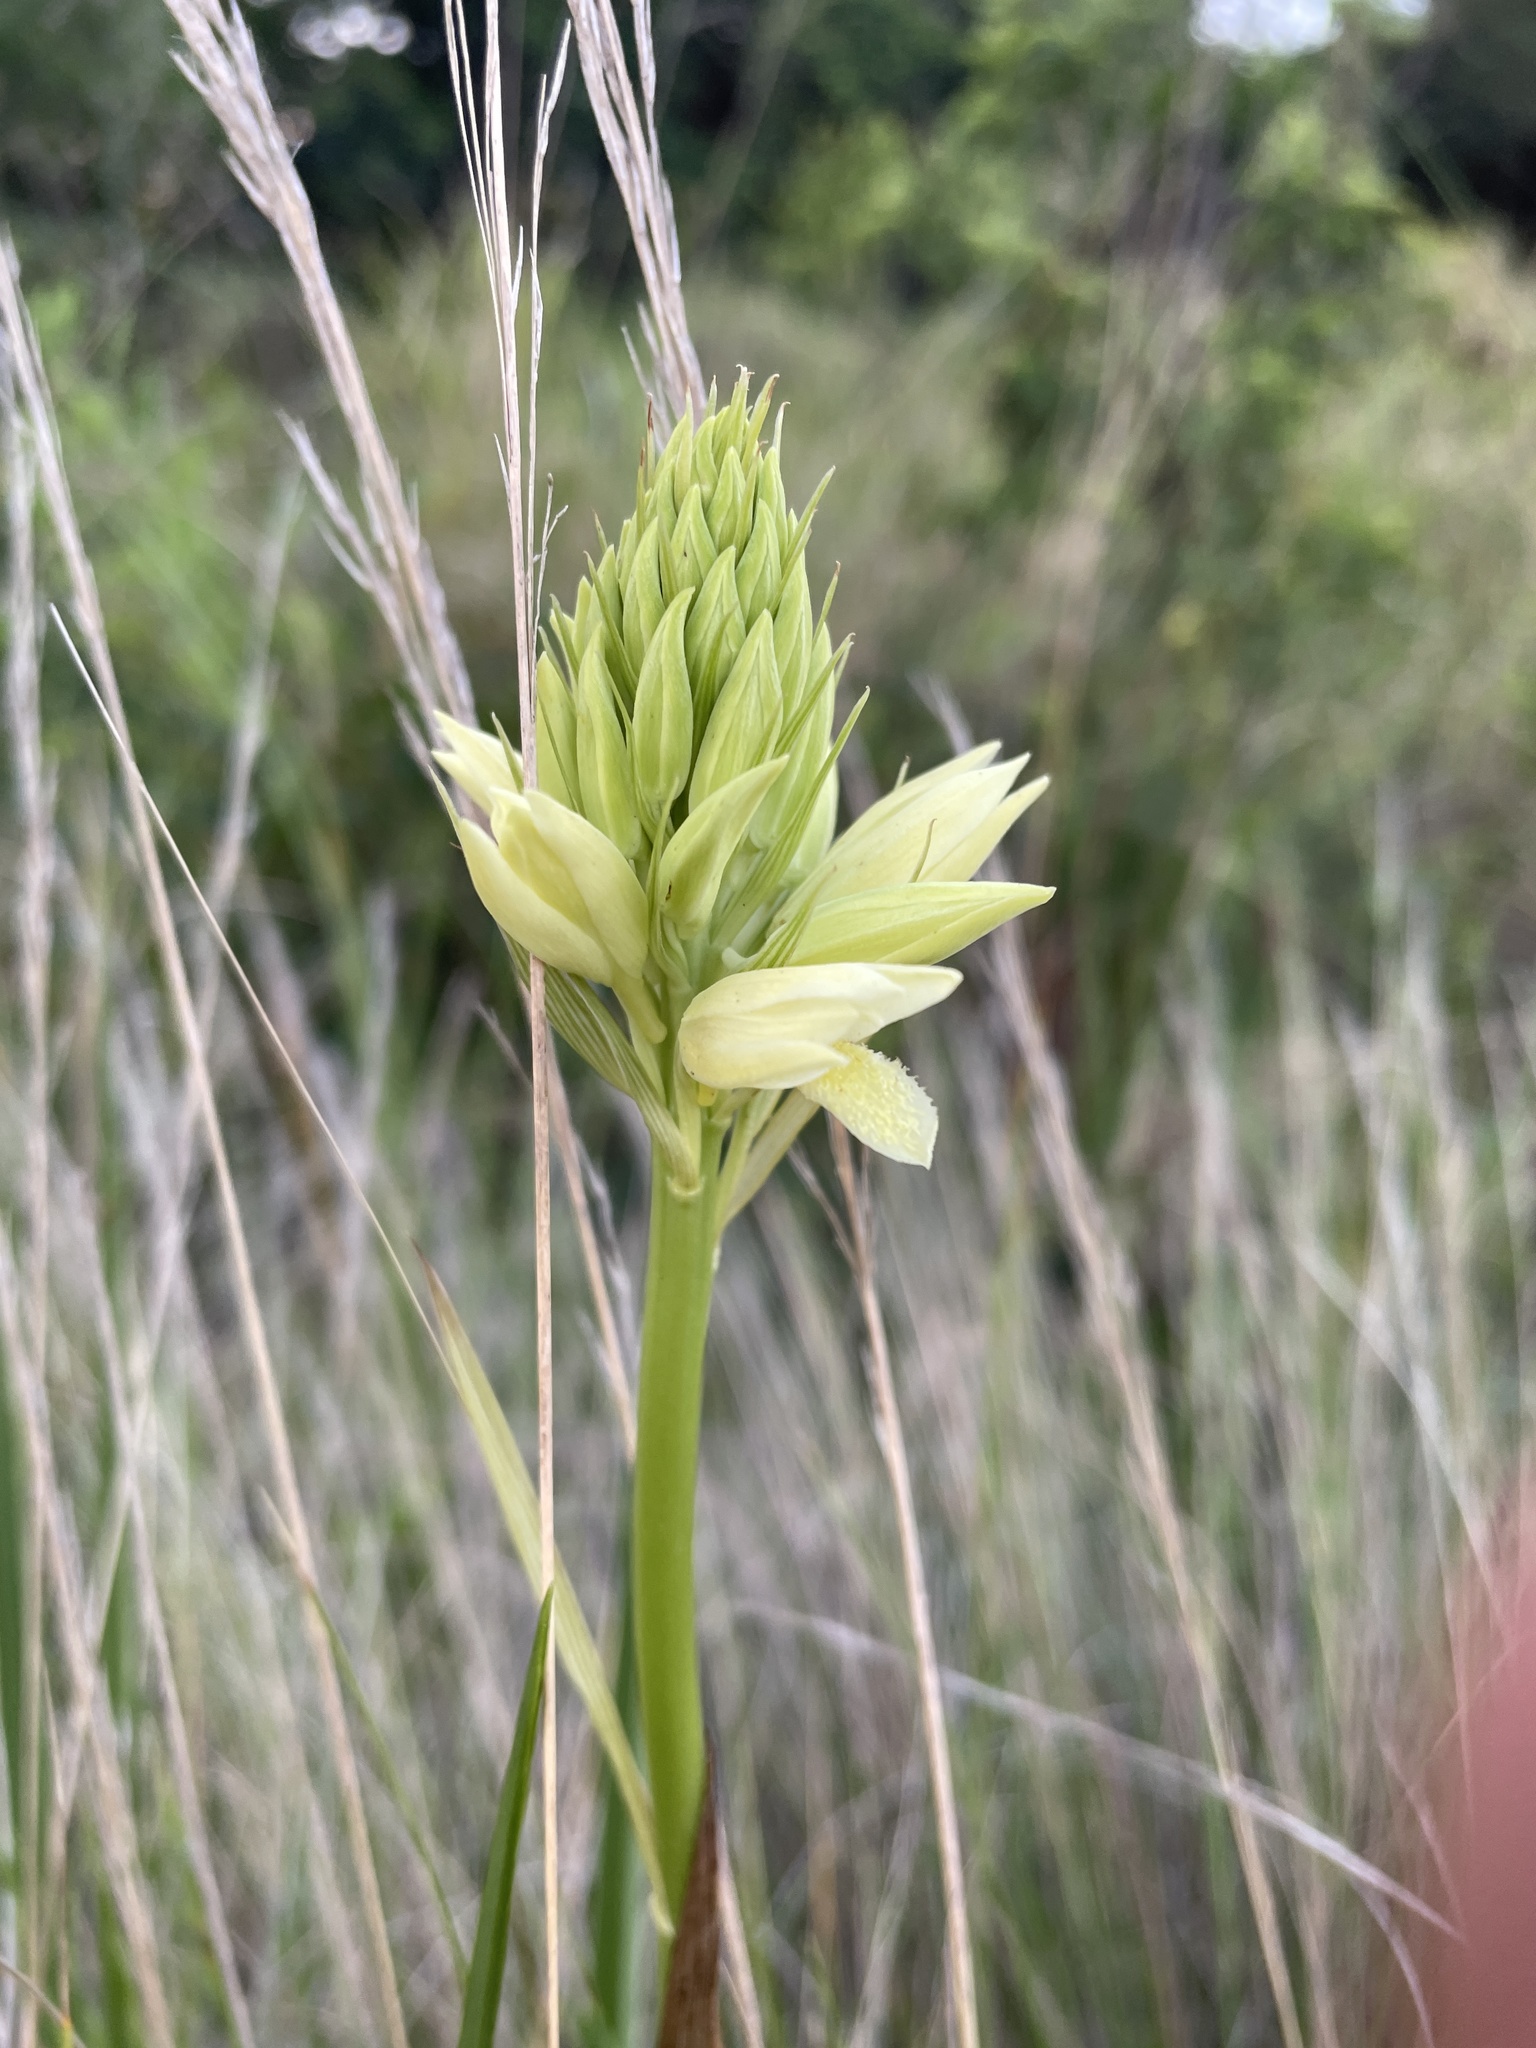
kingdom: Plantae
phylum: Tracheophyta
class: Liliopsida
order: Asparagales
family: Orchidaceae
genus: Eulophia
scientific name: Eulophia ensata
